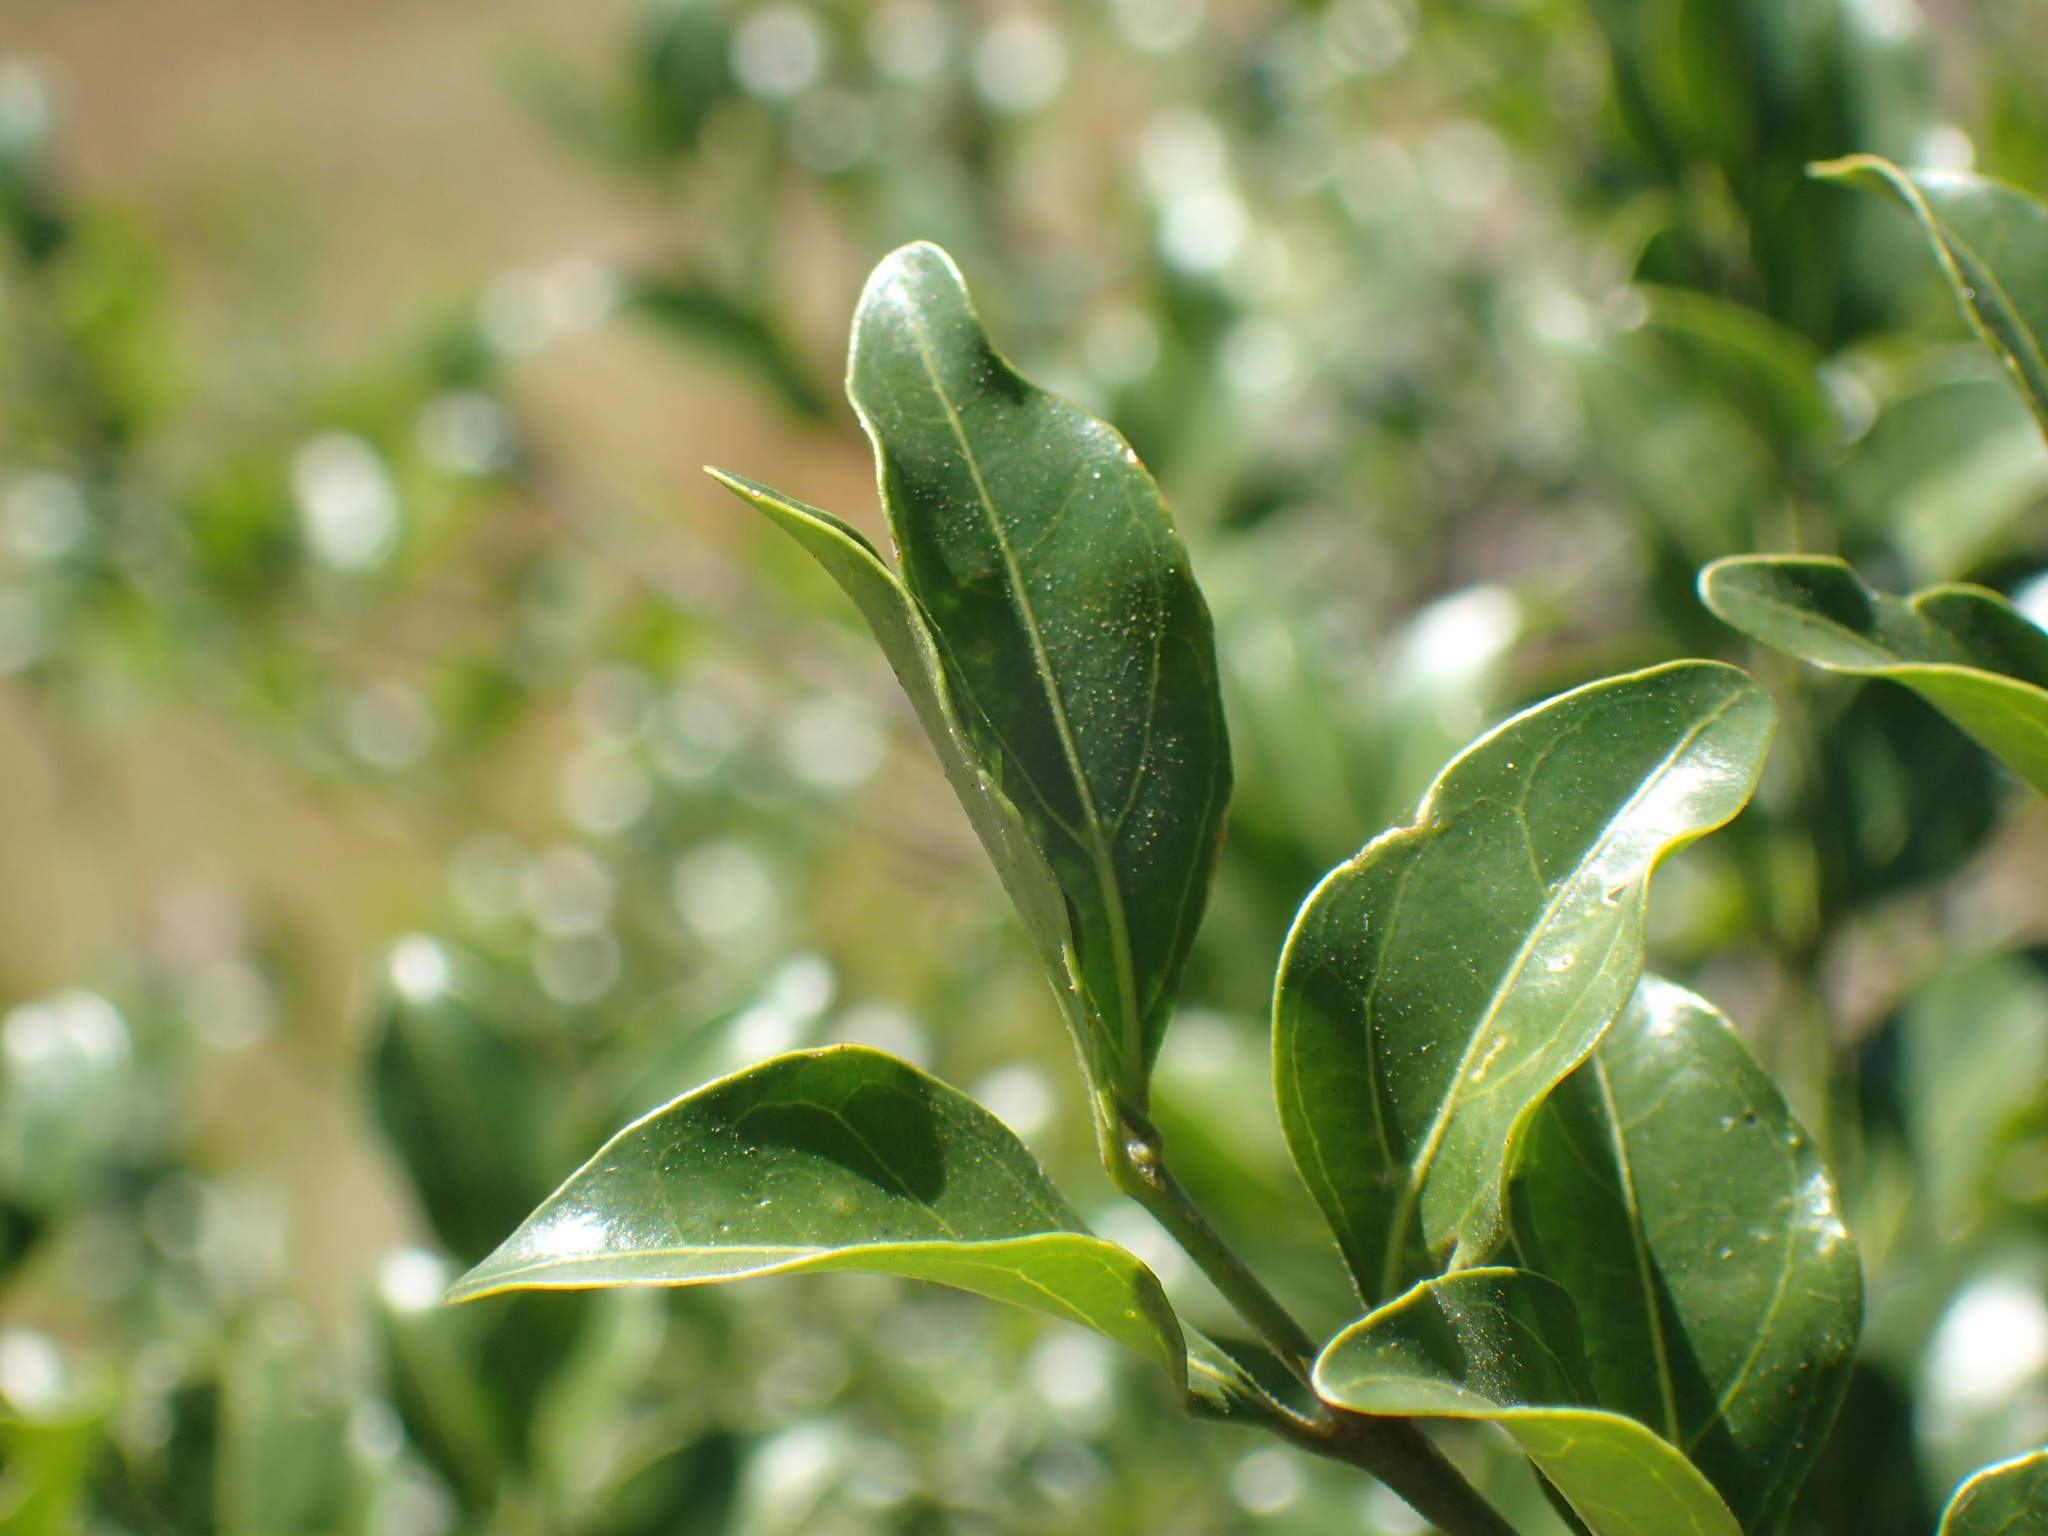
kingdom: Plantae
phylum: Tracheophyta
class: Magnoliopsida
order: Gentianales
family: Rubiaceae
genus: Psydrax
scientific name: Psydrax obovatus
